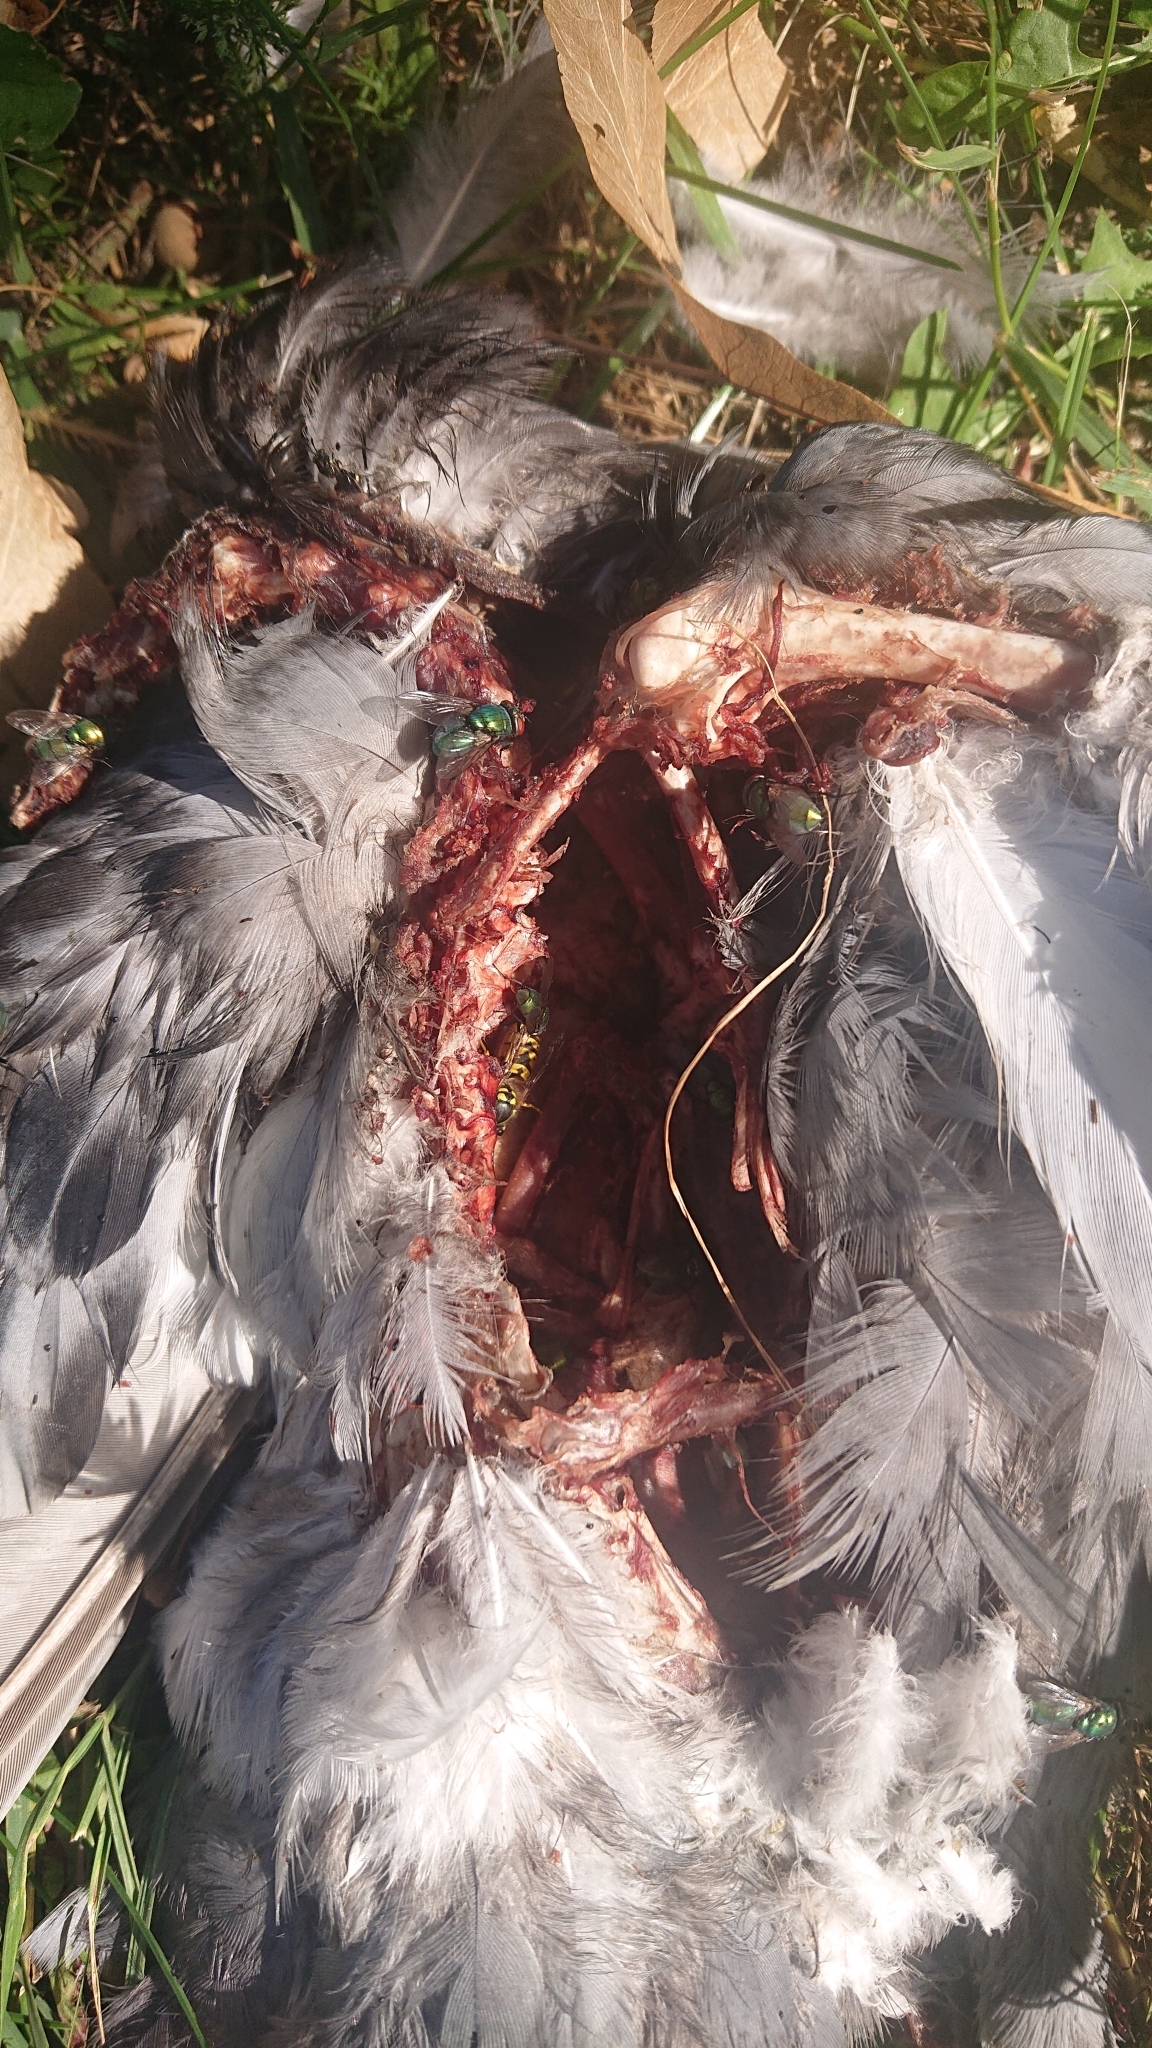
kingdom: Animalia
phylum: Chordata
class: Aves
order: Columbiformes
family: Columbidae
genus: Columba
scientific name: Columba livia
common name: Rock pigeon
